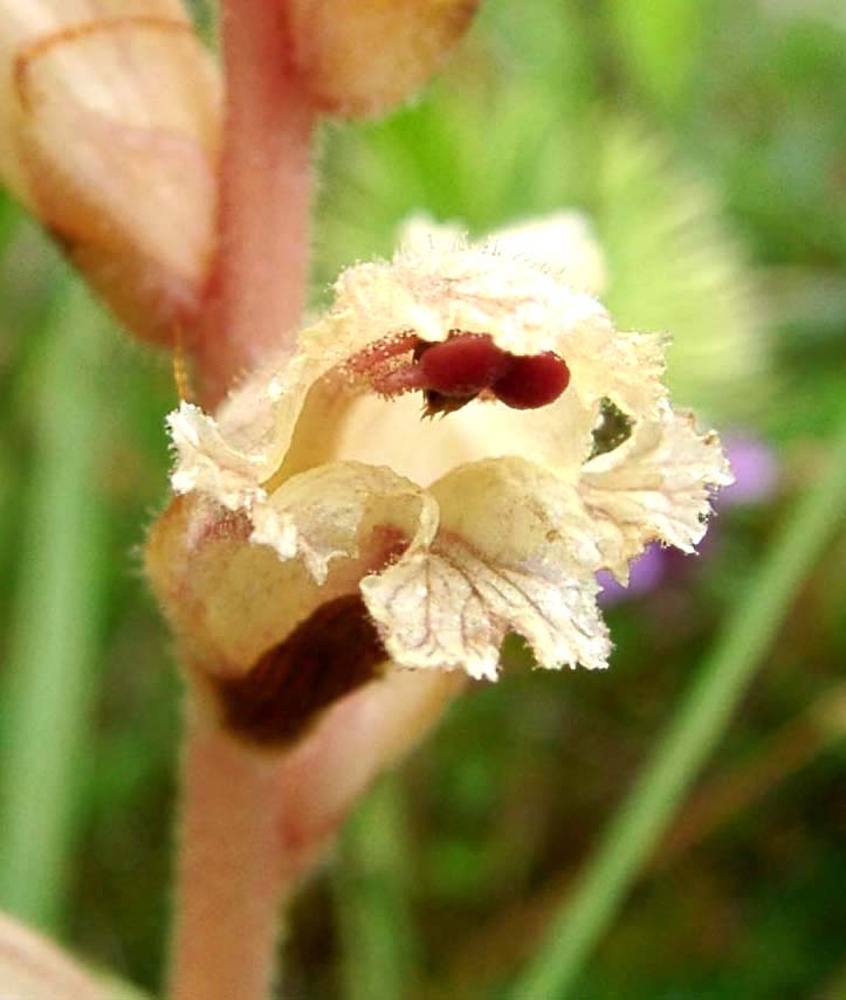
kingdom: Plantae
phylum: Tracheophyta
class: Magnoliopsida
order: Lamiales
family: Orobanchaceae
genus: Orobanche
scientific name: Orobanche alba
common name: Thyme broomrape
